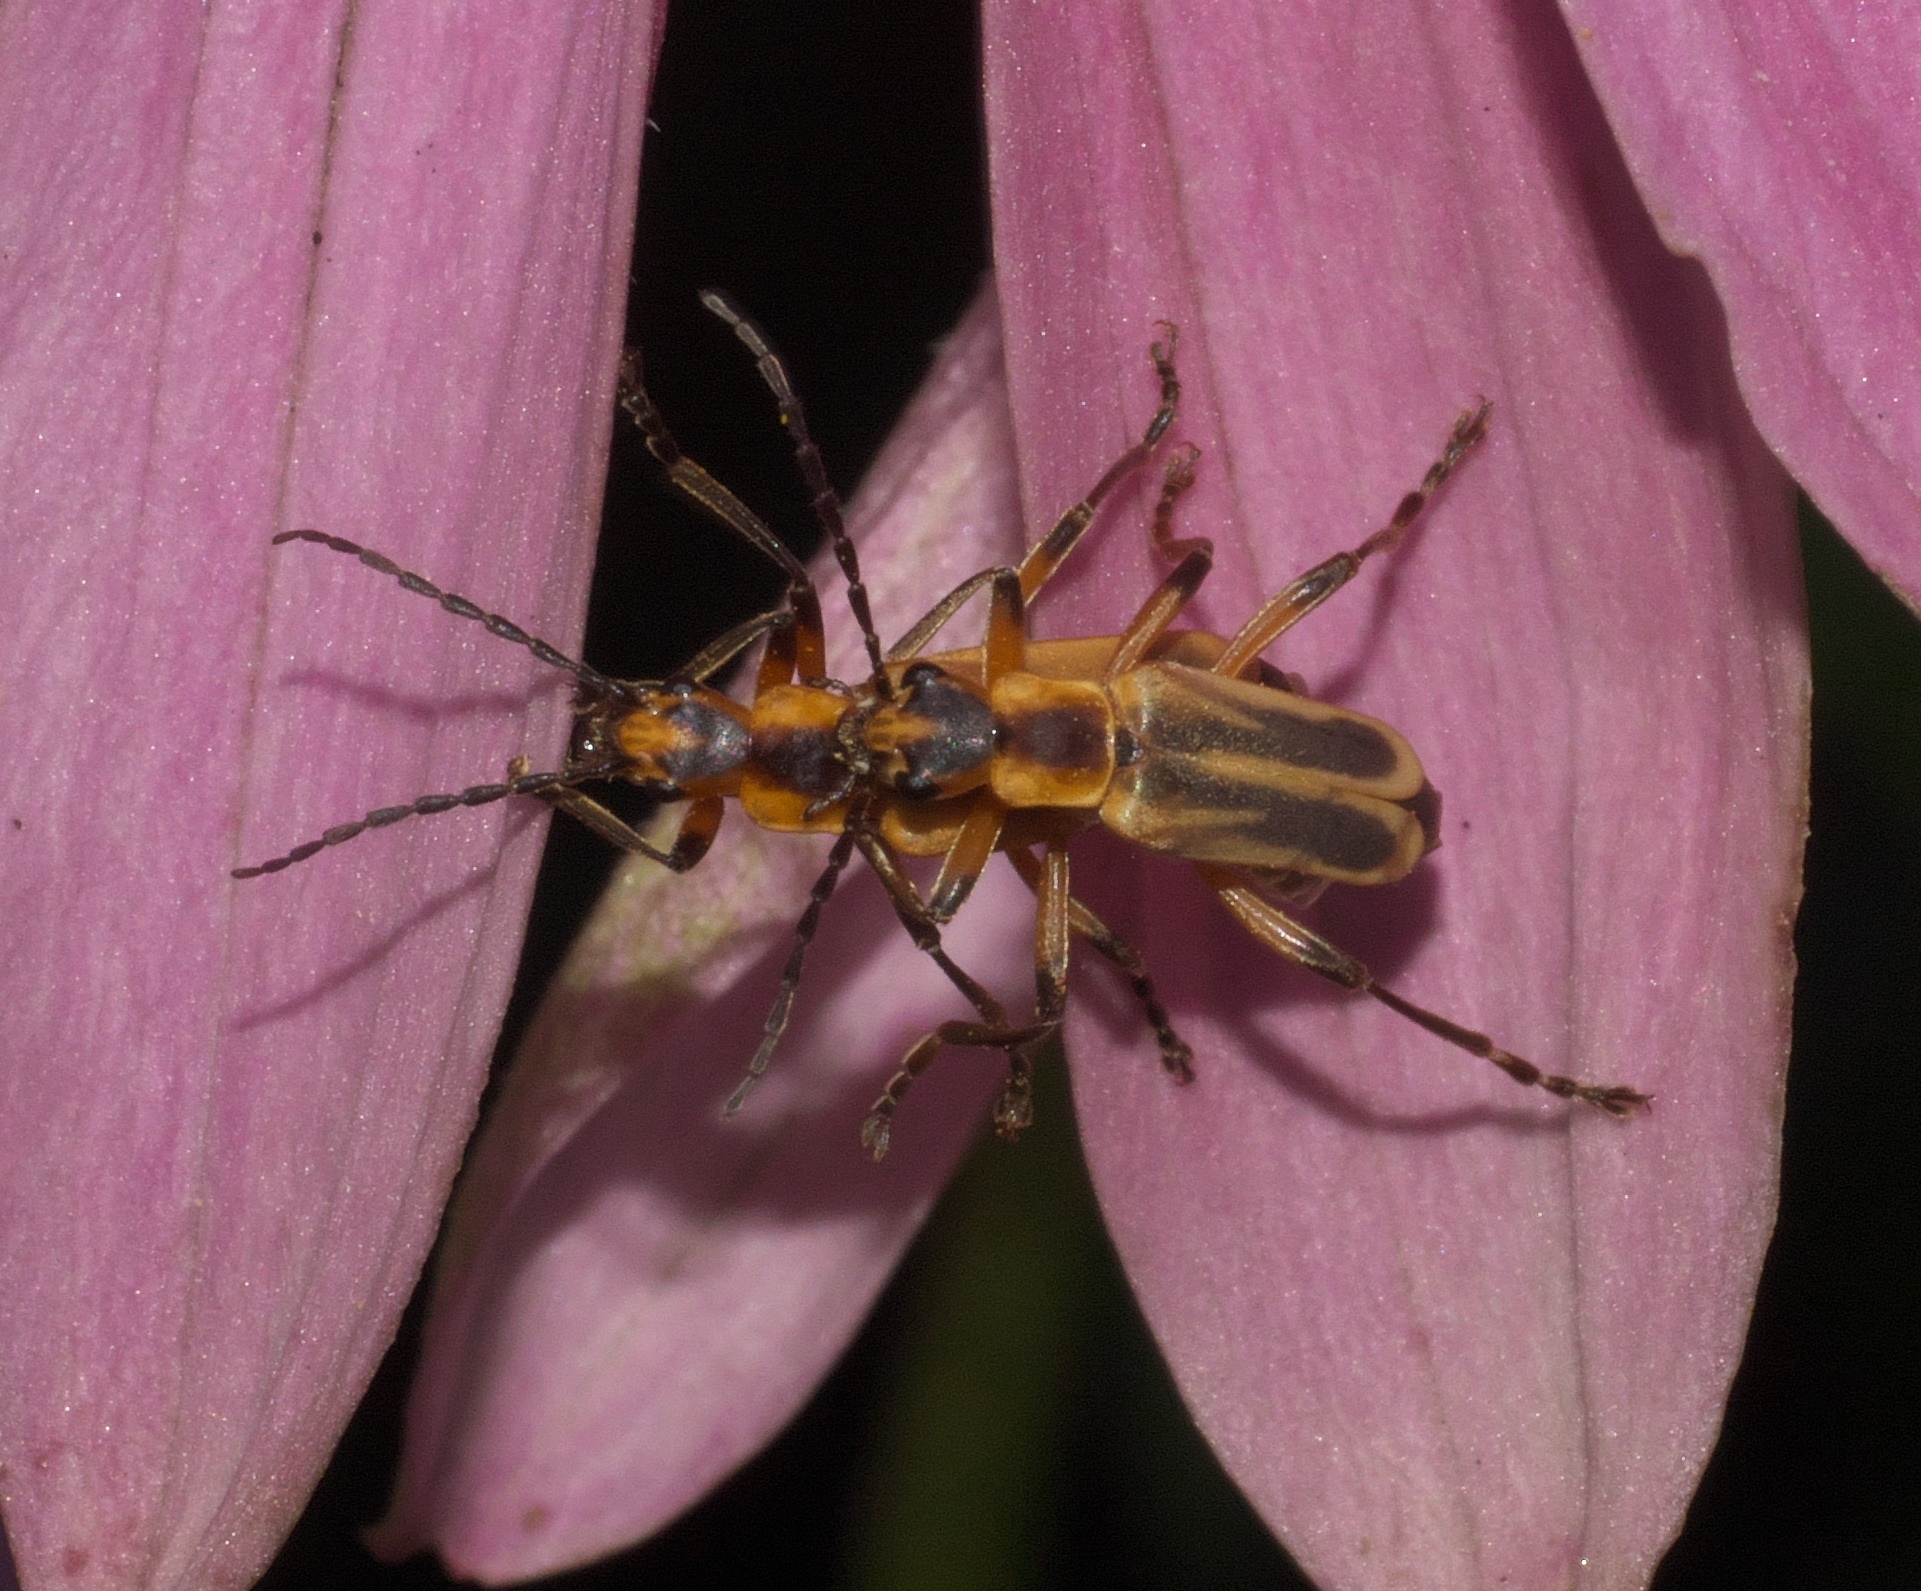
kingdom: Animalia
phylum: Arthropoda
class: Insecta
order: Coleoptera
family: Cantharidae
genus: Chauliognathus
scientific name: Chauliognathus marginatus
